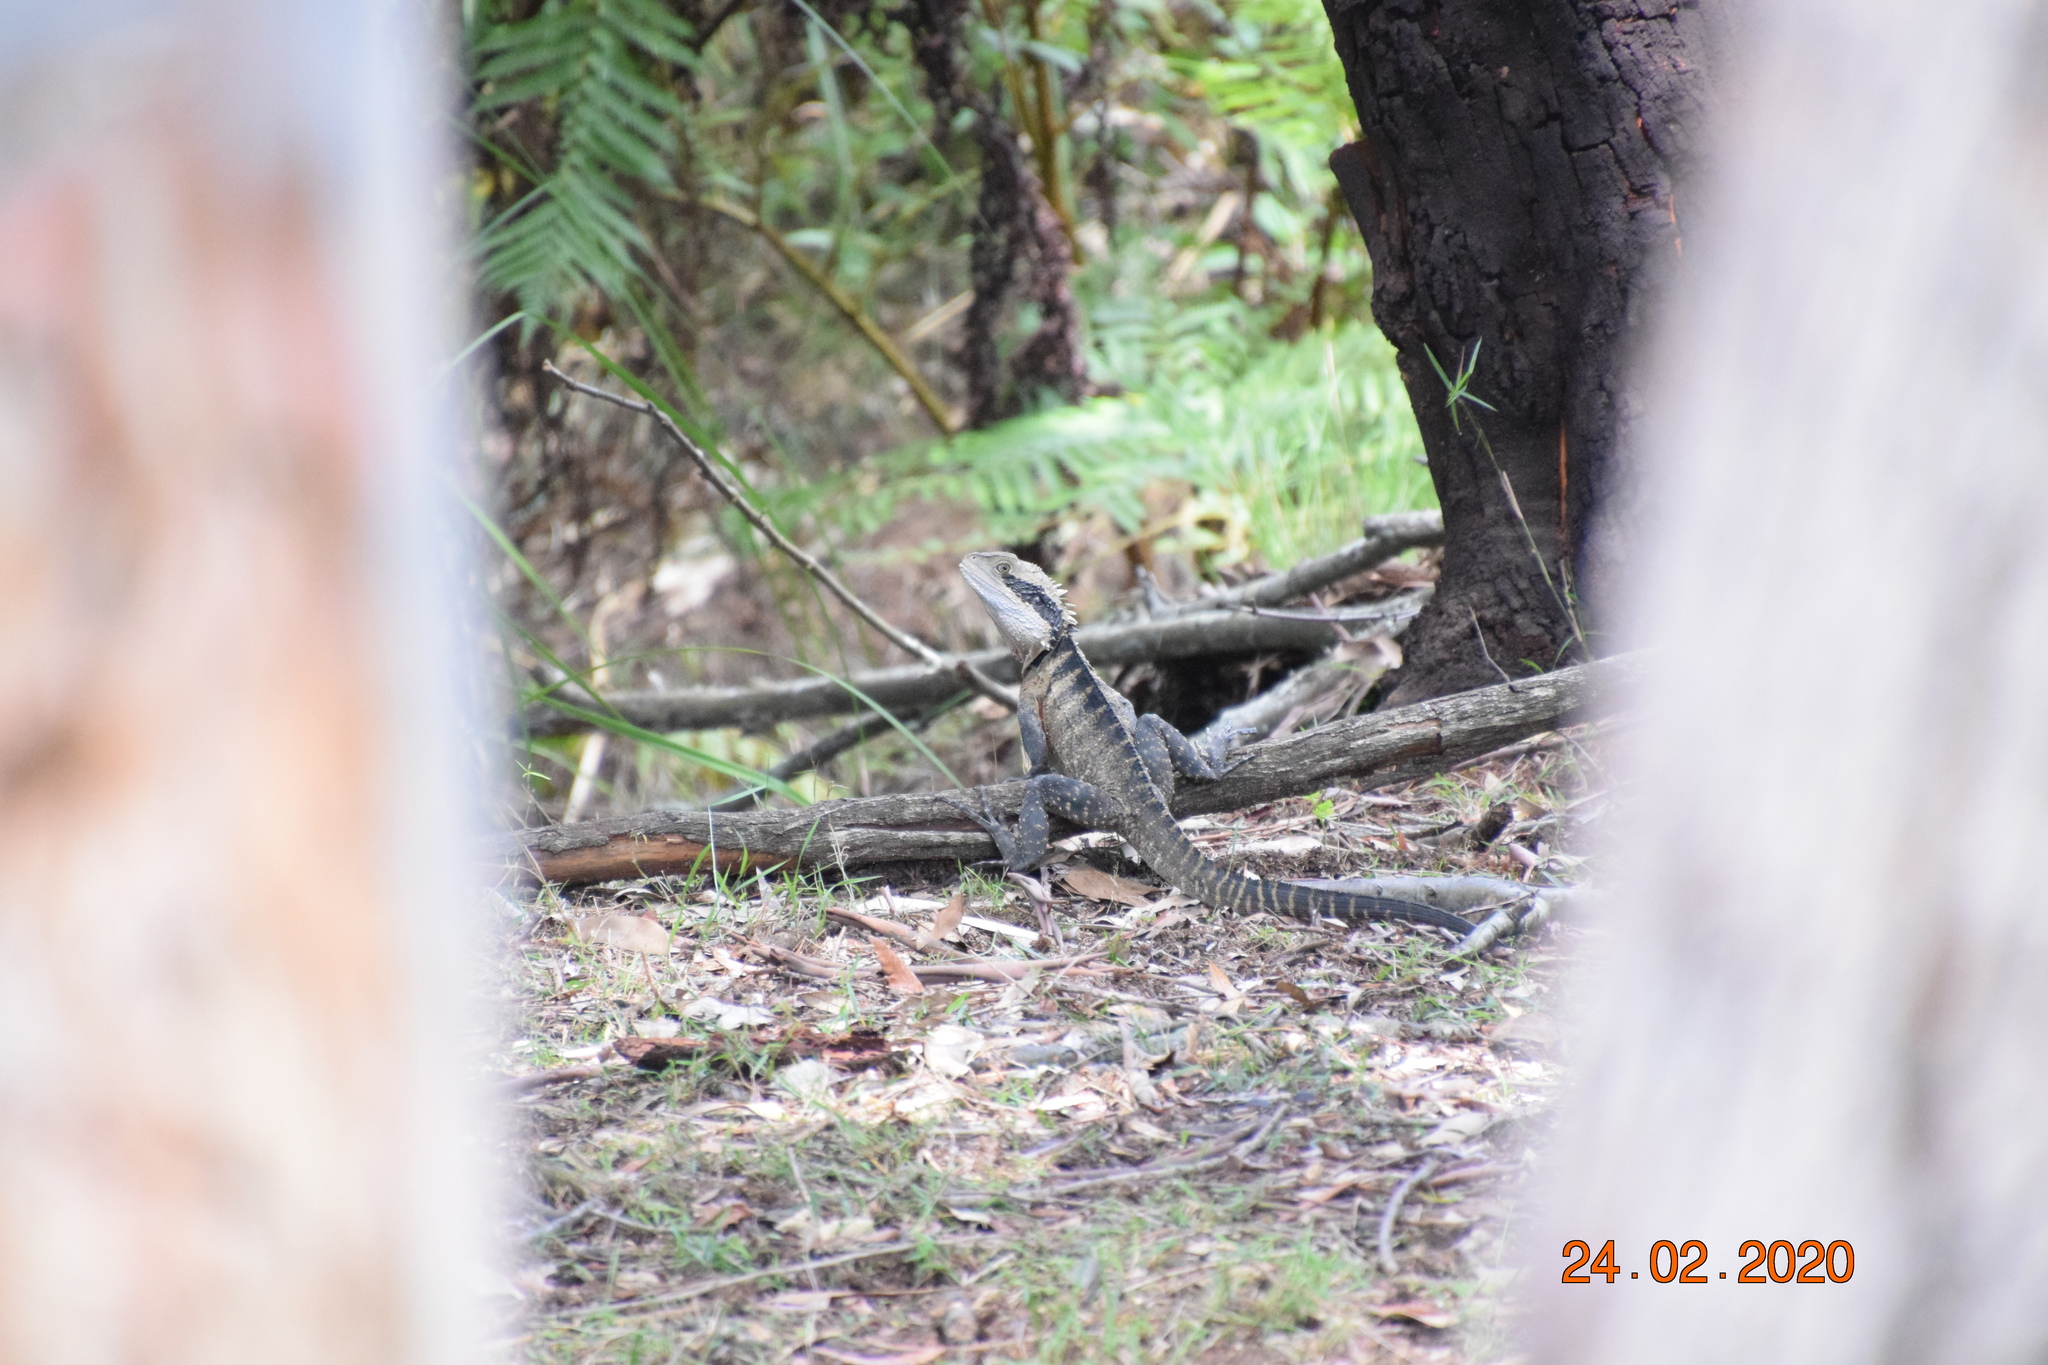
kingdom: Animalia
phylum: Chordata
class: Squamata
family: Agamidae
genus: Intellagama
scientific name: Intellagama lesueurii
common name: Eastern water dragon
